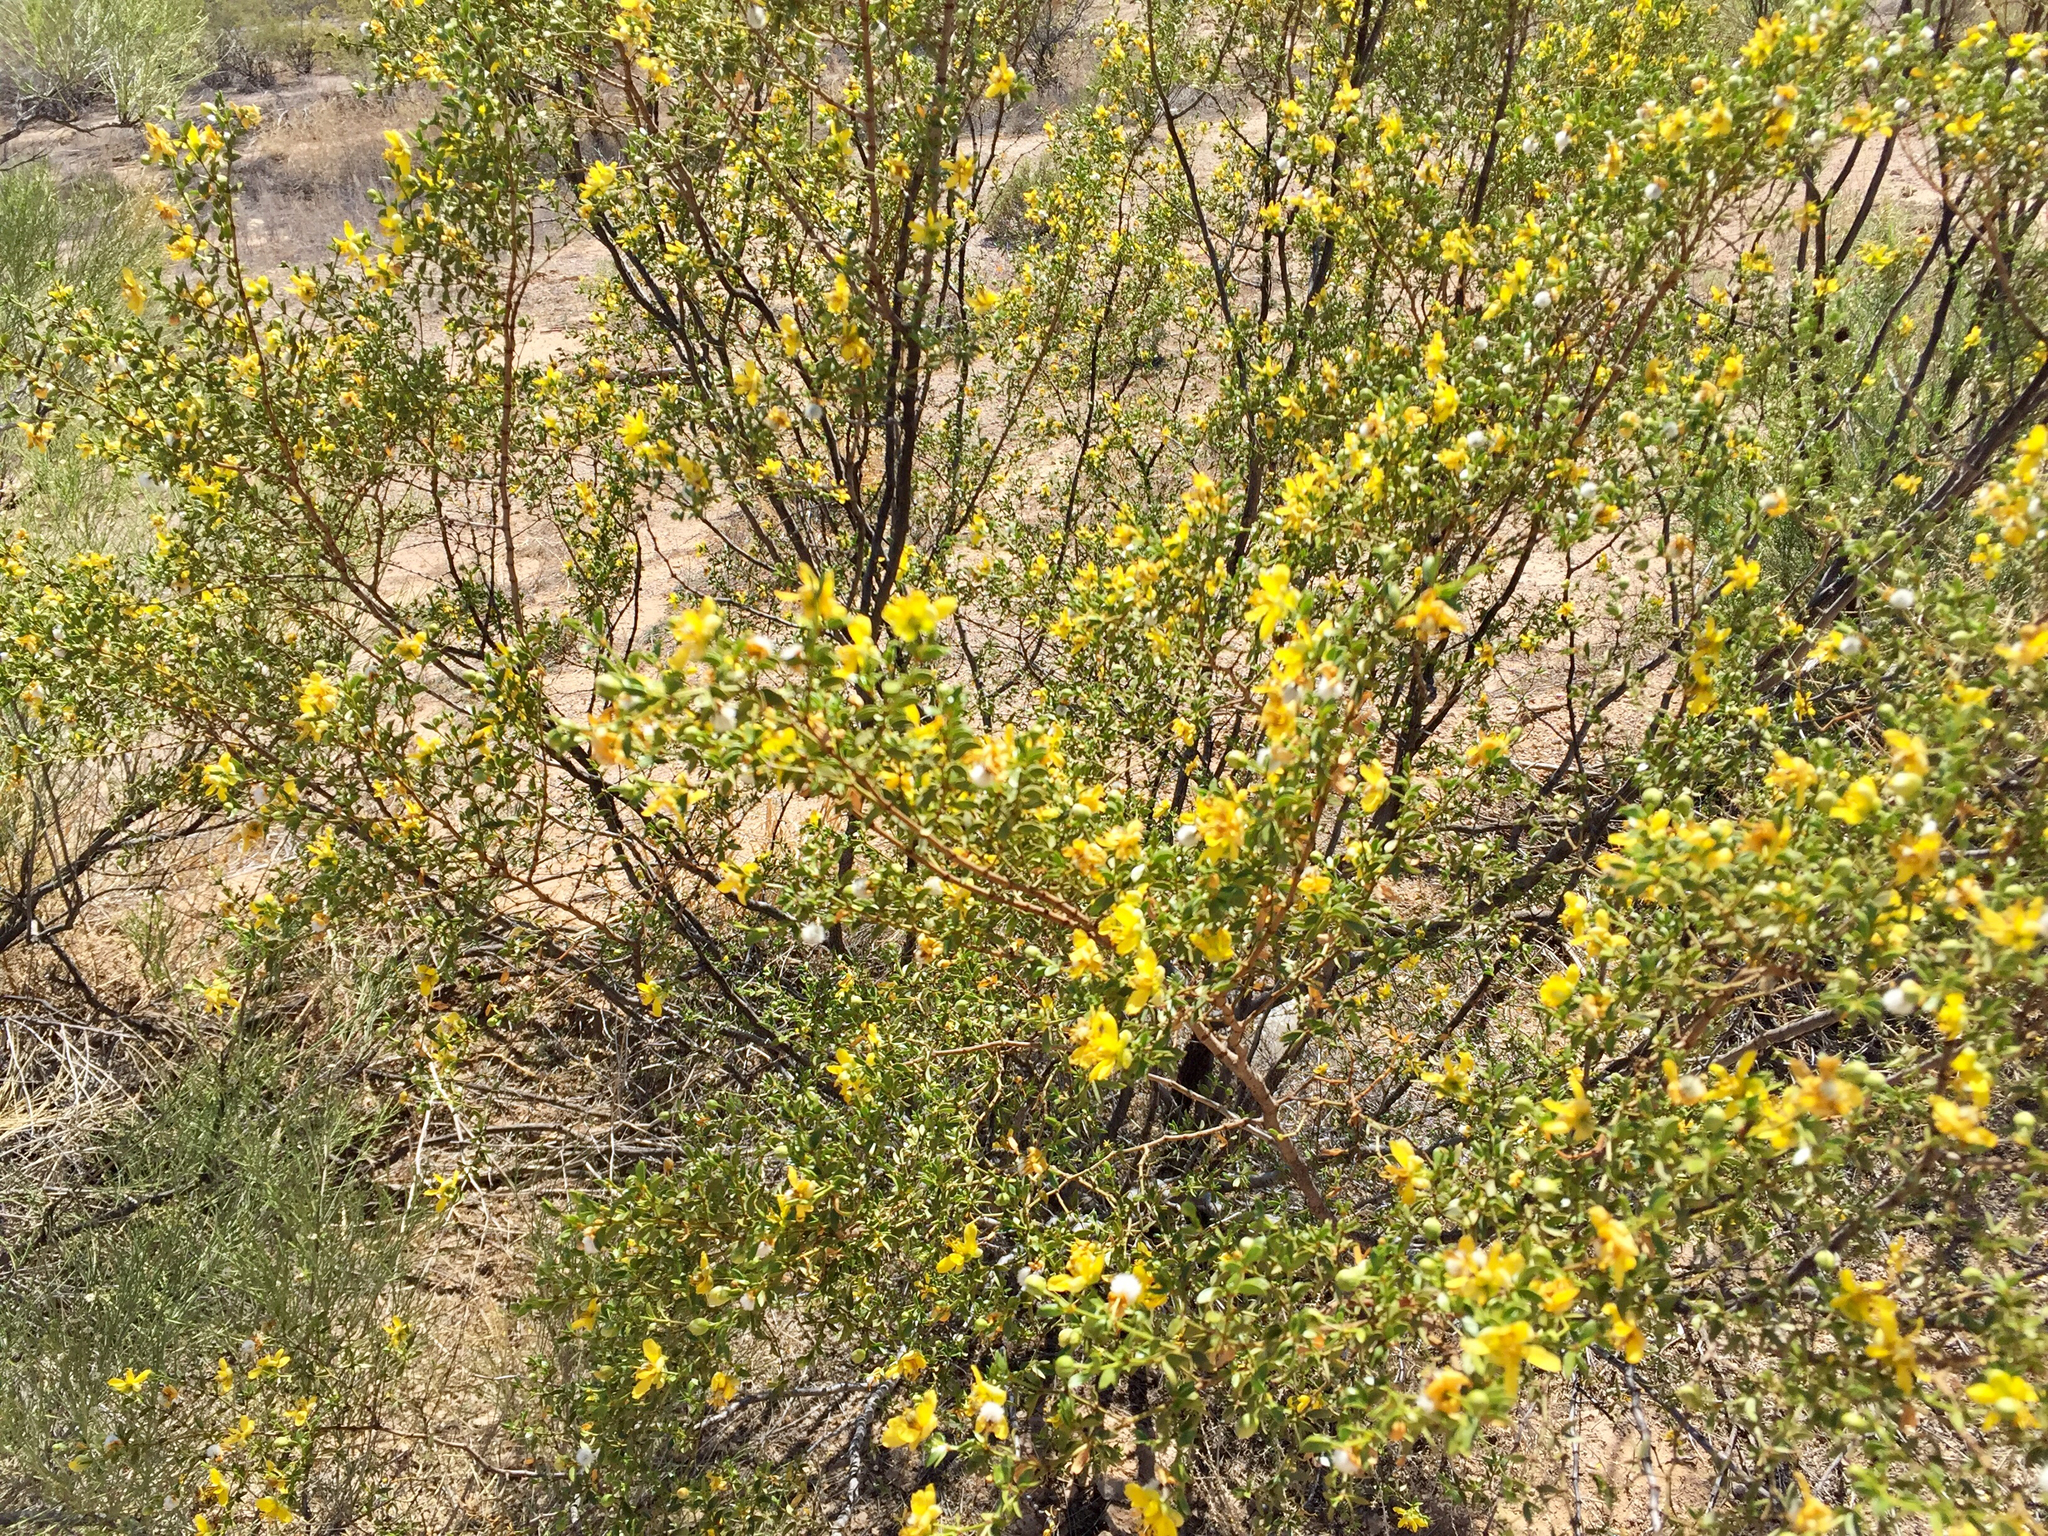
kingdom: Plantae
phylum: Tracheophyta
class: Magnoliopsida
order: Zygophyllales
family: Zygophyllaceae
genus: Larrea
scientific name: Larrea tridentata
